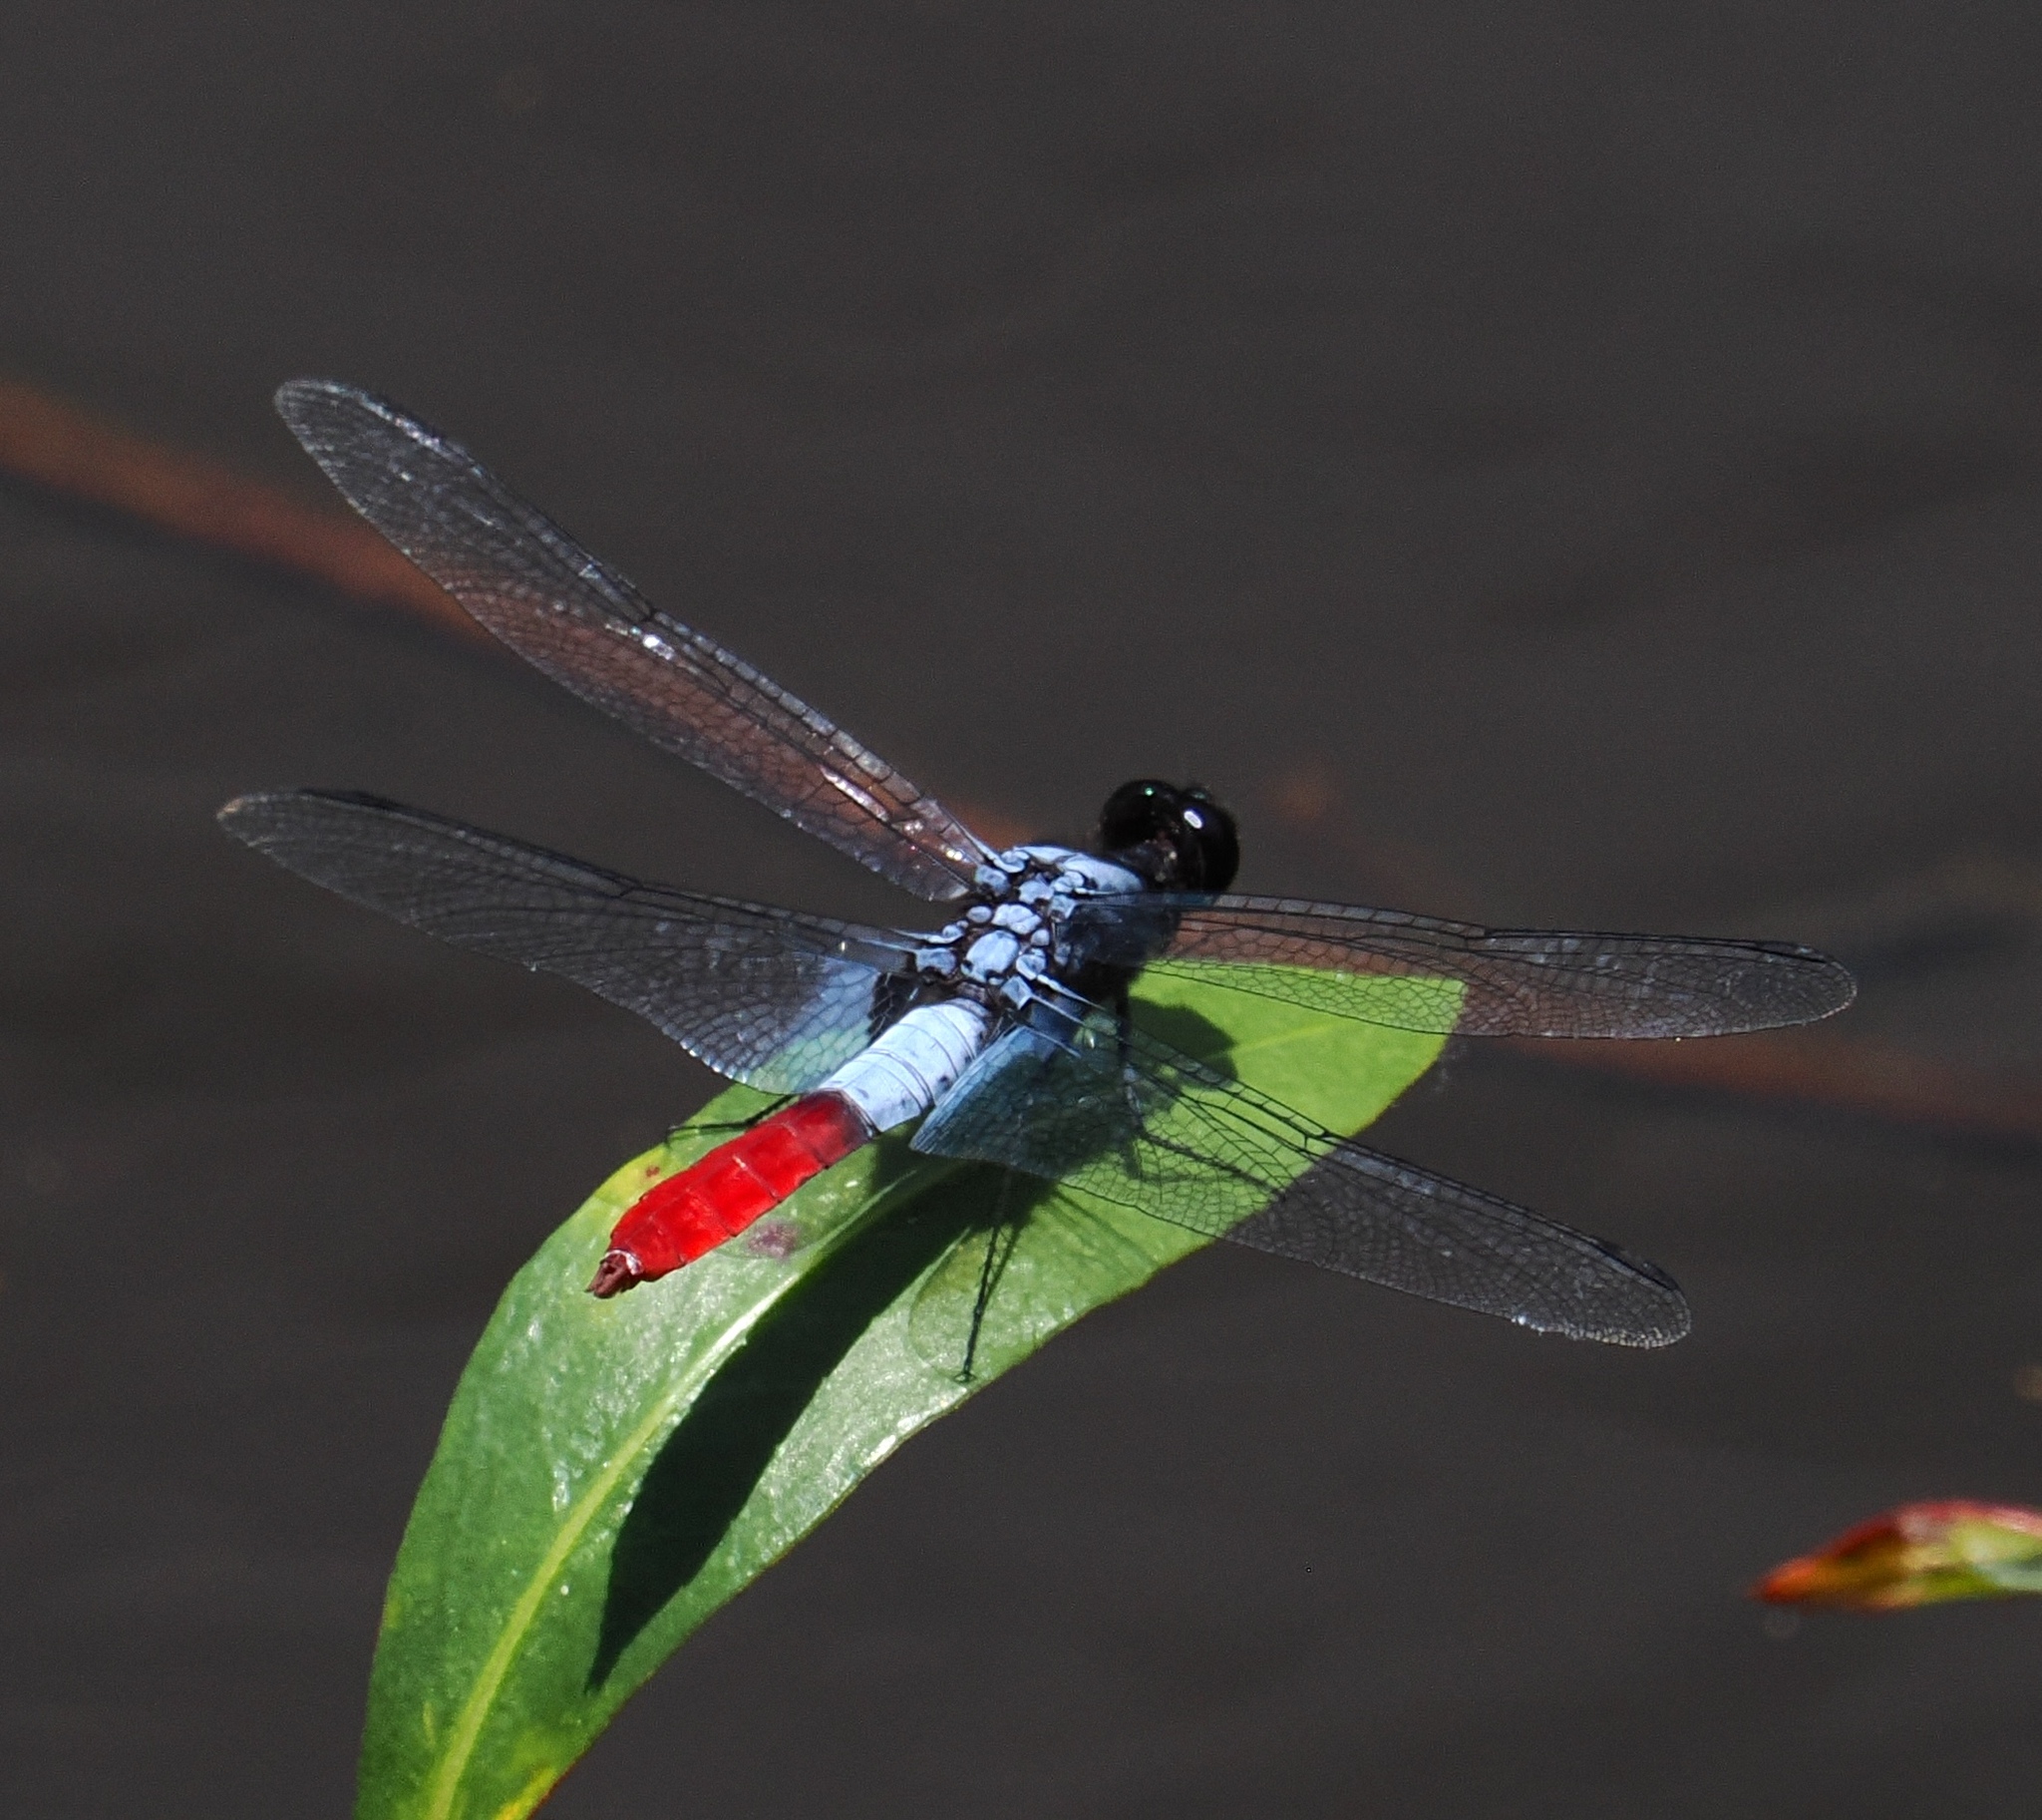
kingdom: Animalia
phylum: Arthropoda
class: Insecta
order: Odonata
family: Libellulidae
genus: Planiplax
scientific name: Planiplax erythropyga
